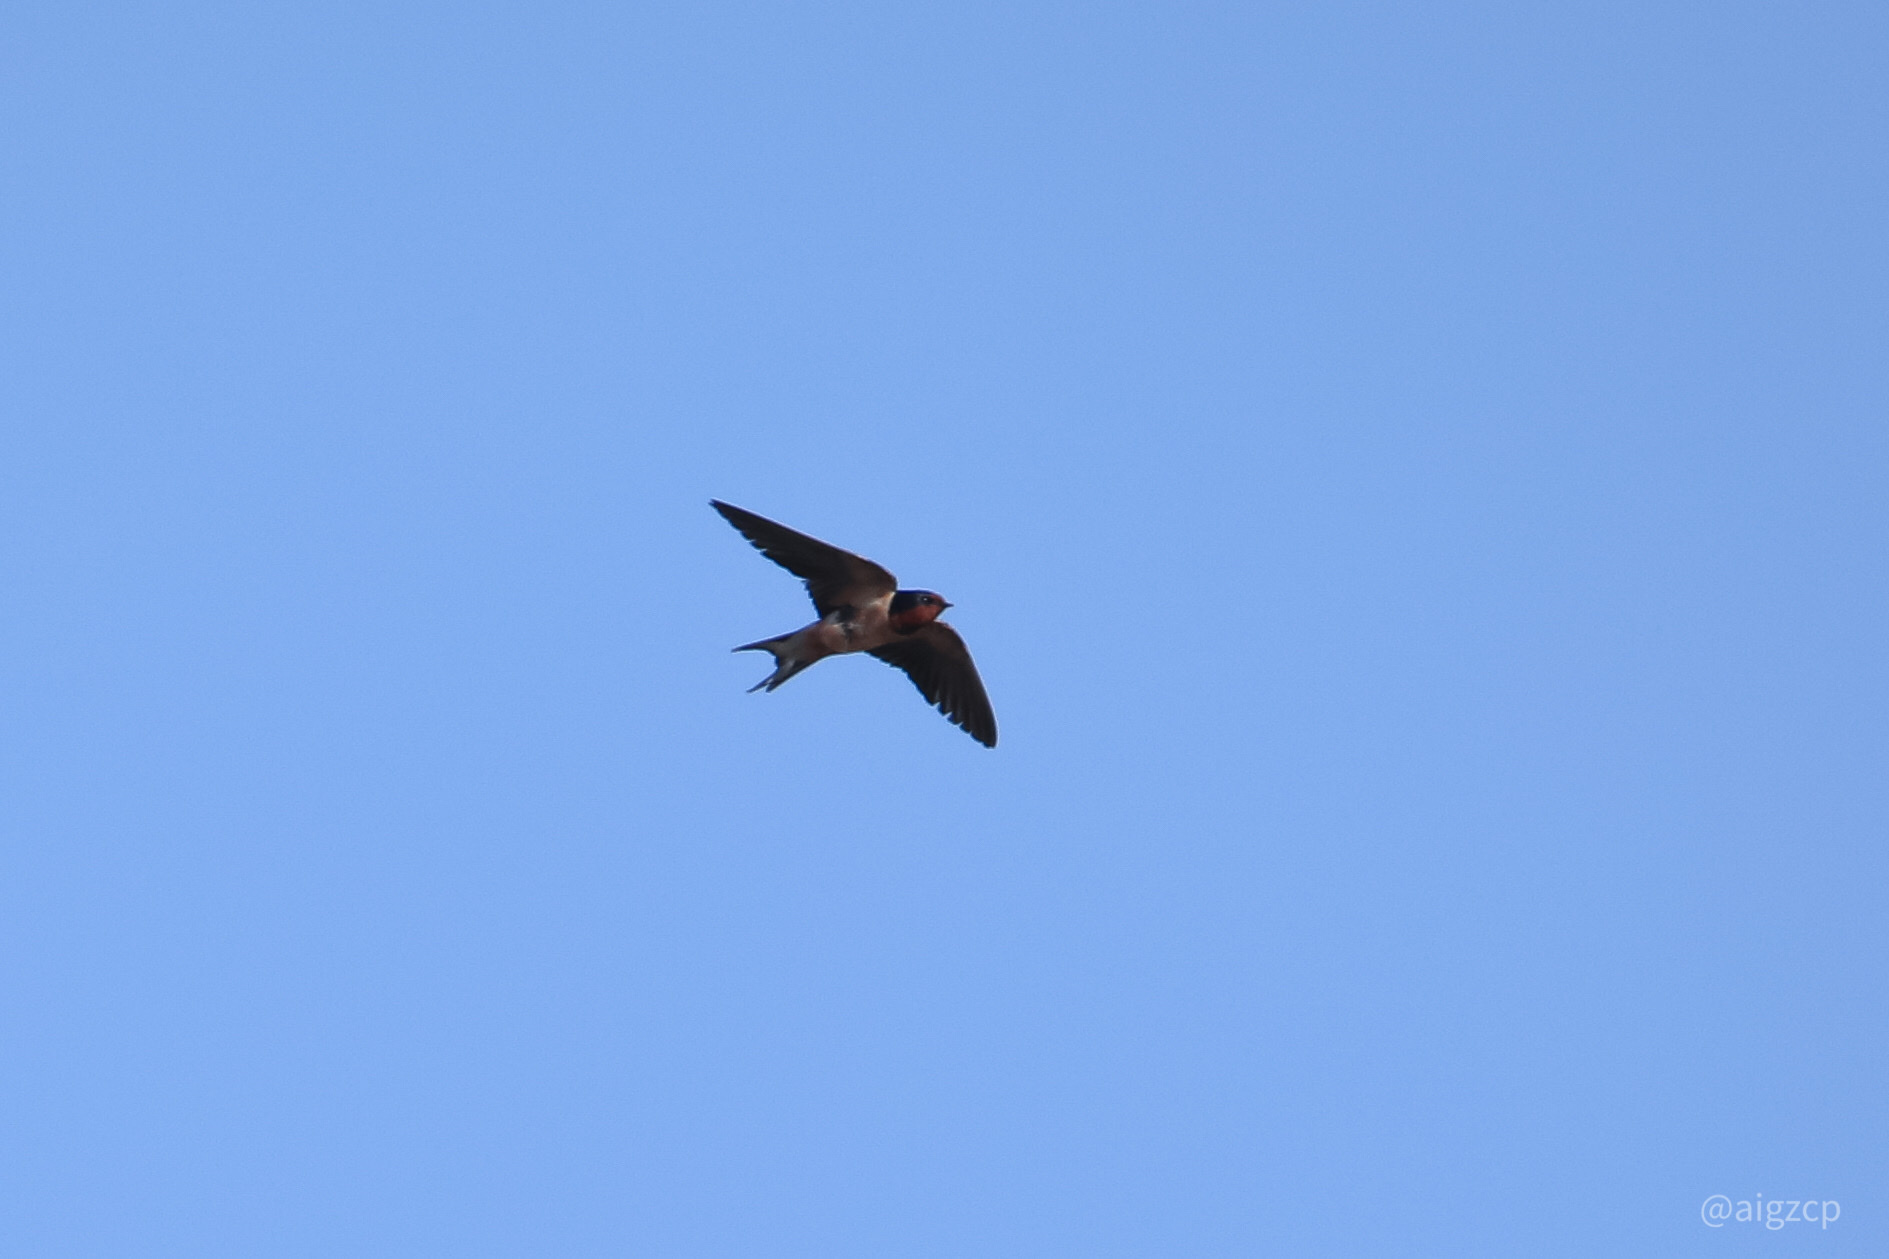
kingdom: Animalia
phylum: Chordata
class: Aves
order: Passeriformes
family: Hirundinidae
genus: Hirundo
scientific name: Hirundo rustica
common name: Barn swallow
